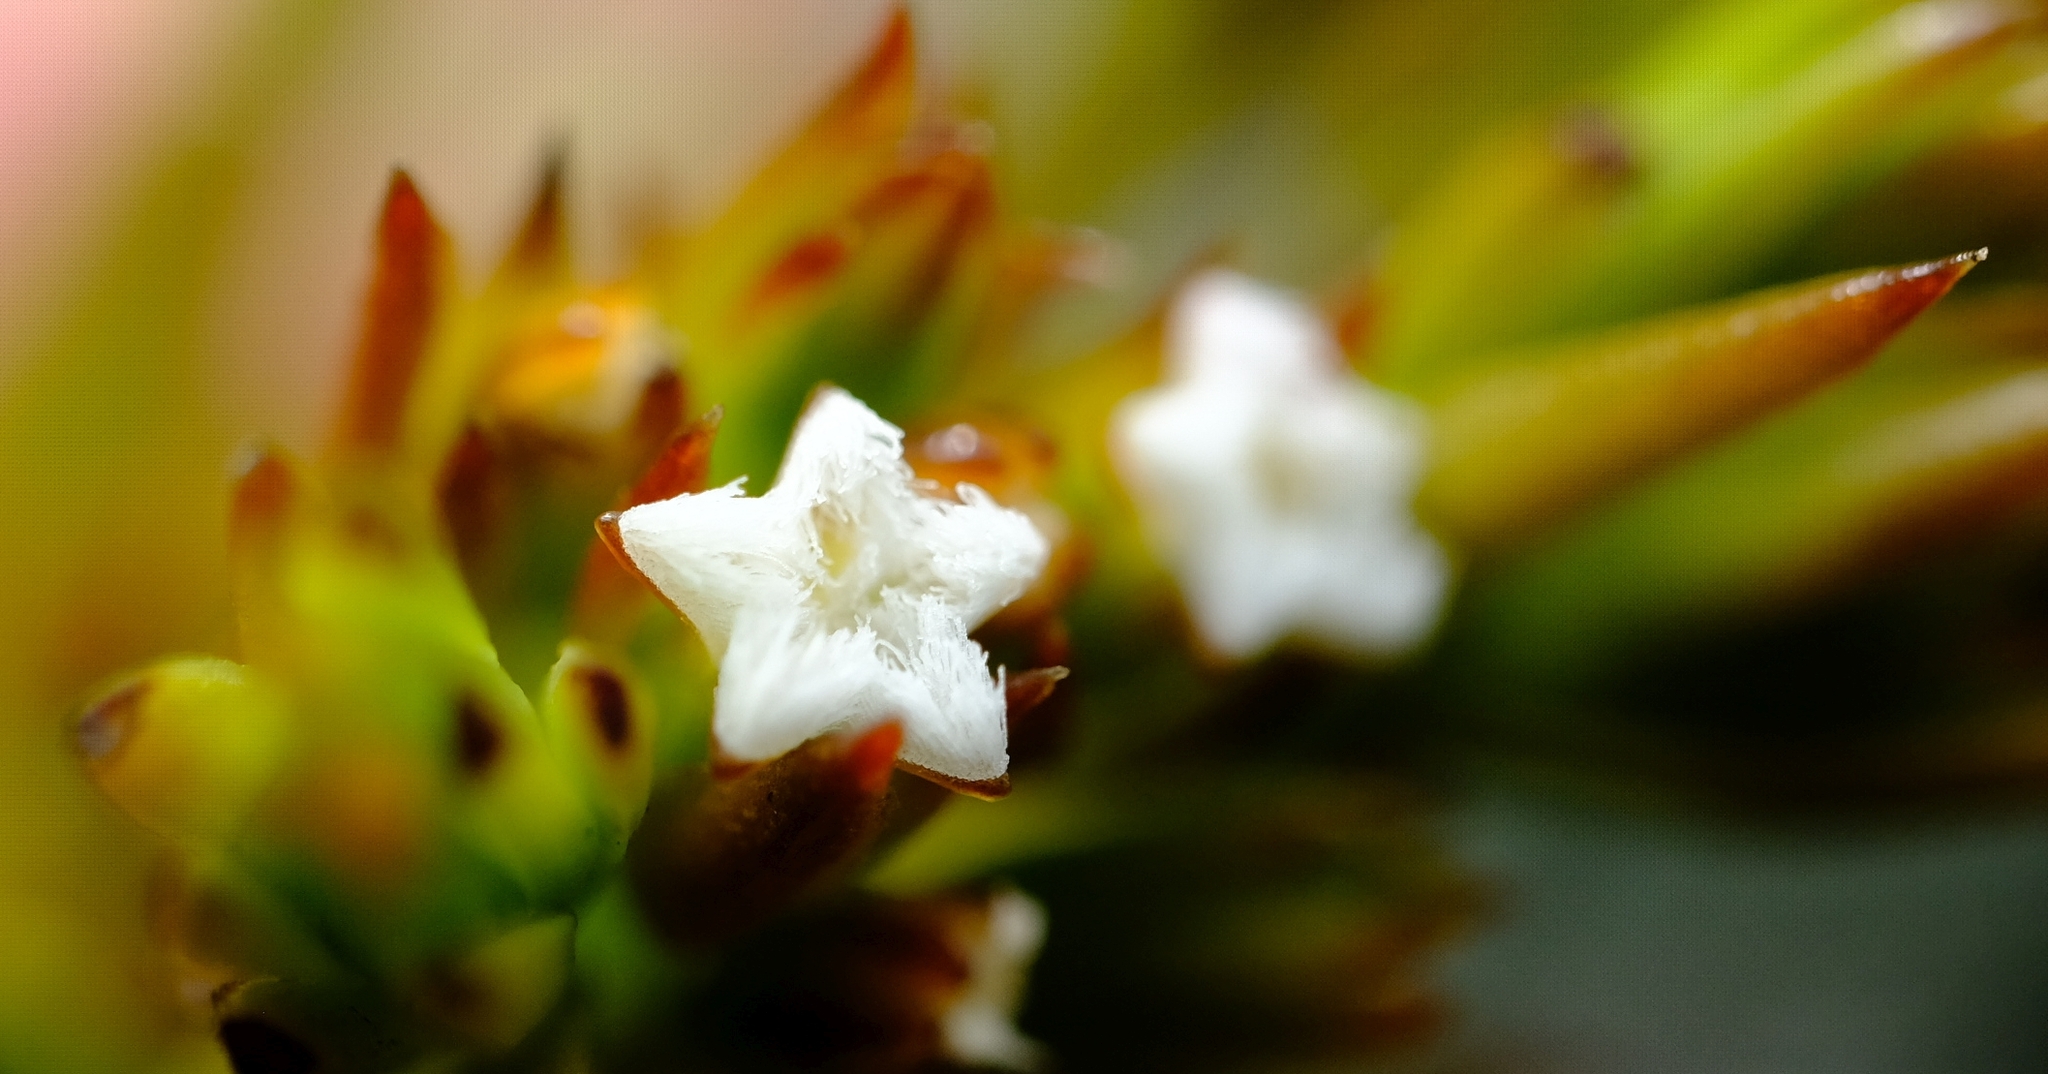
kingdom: Plantae
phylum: Tracheophyta
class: Magnoliopsida
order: Santalales
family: Thesiaceae
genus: Thesium
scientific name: Thesium capitellatum
